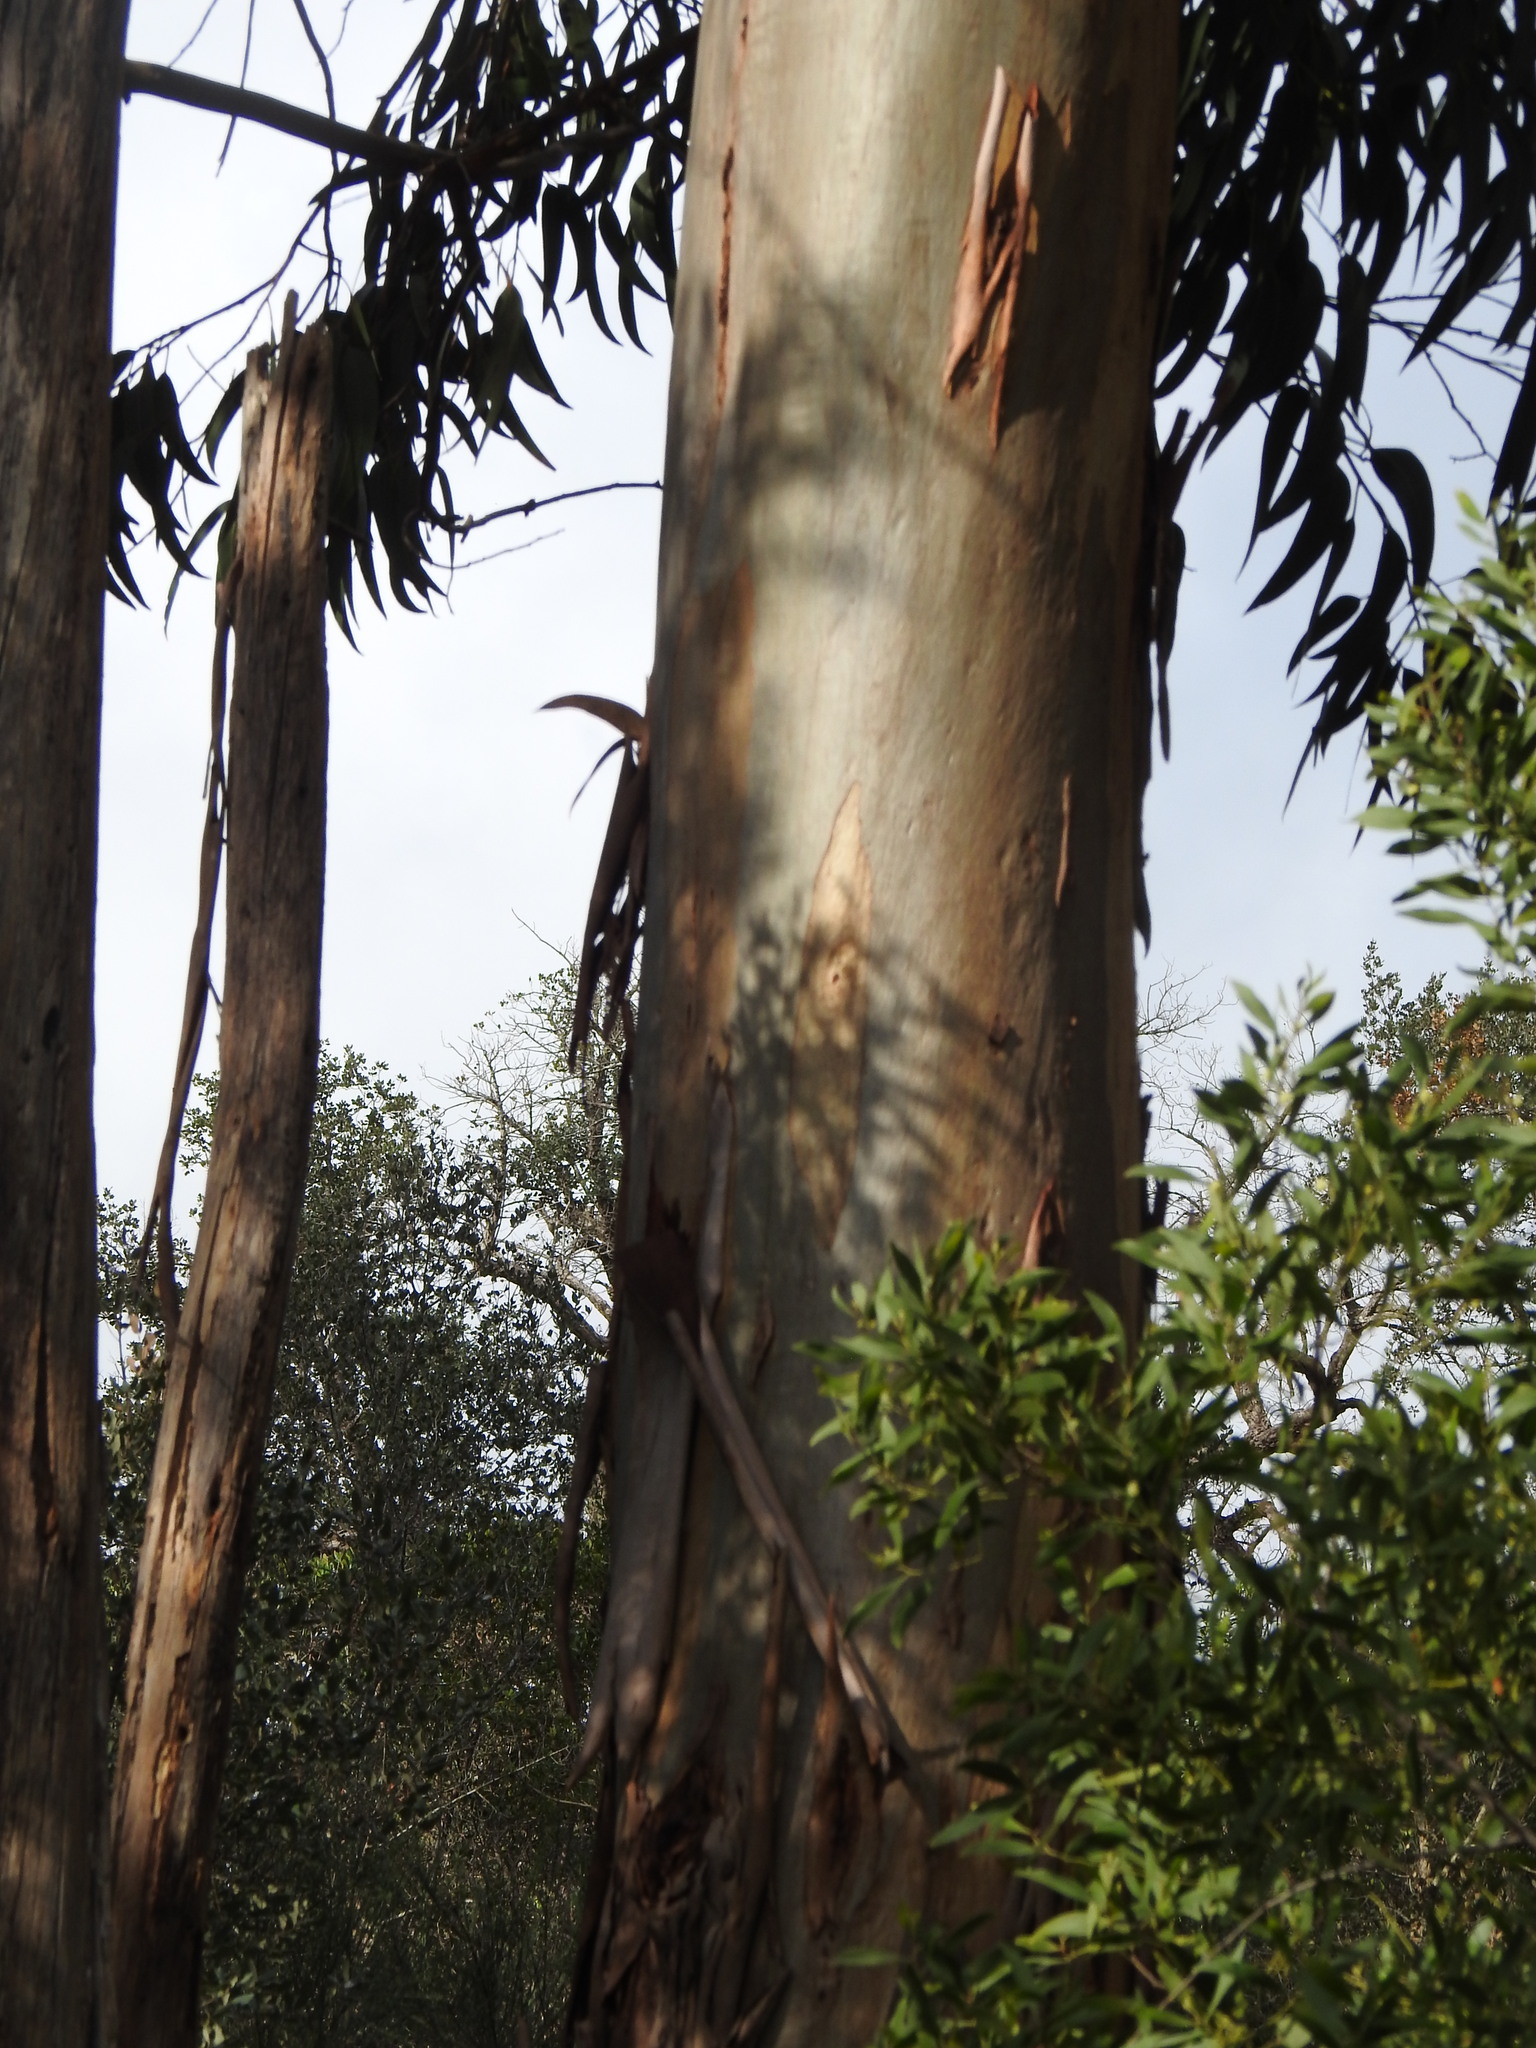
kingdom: Plantae
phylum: Tracheophyta
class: Magnoliopsida
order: Myrtales
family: Myrtaceae
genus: Eucalyptus
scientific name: Eucalyptus globulus
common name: Southern blue-gum
